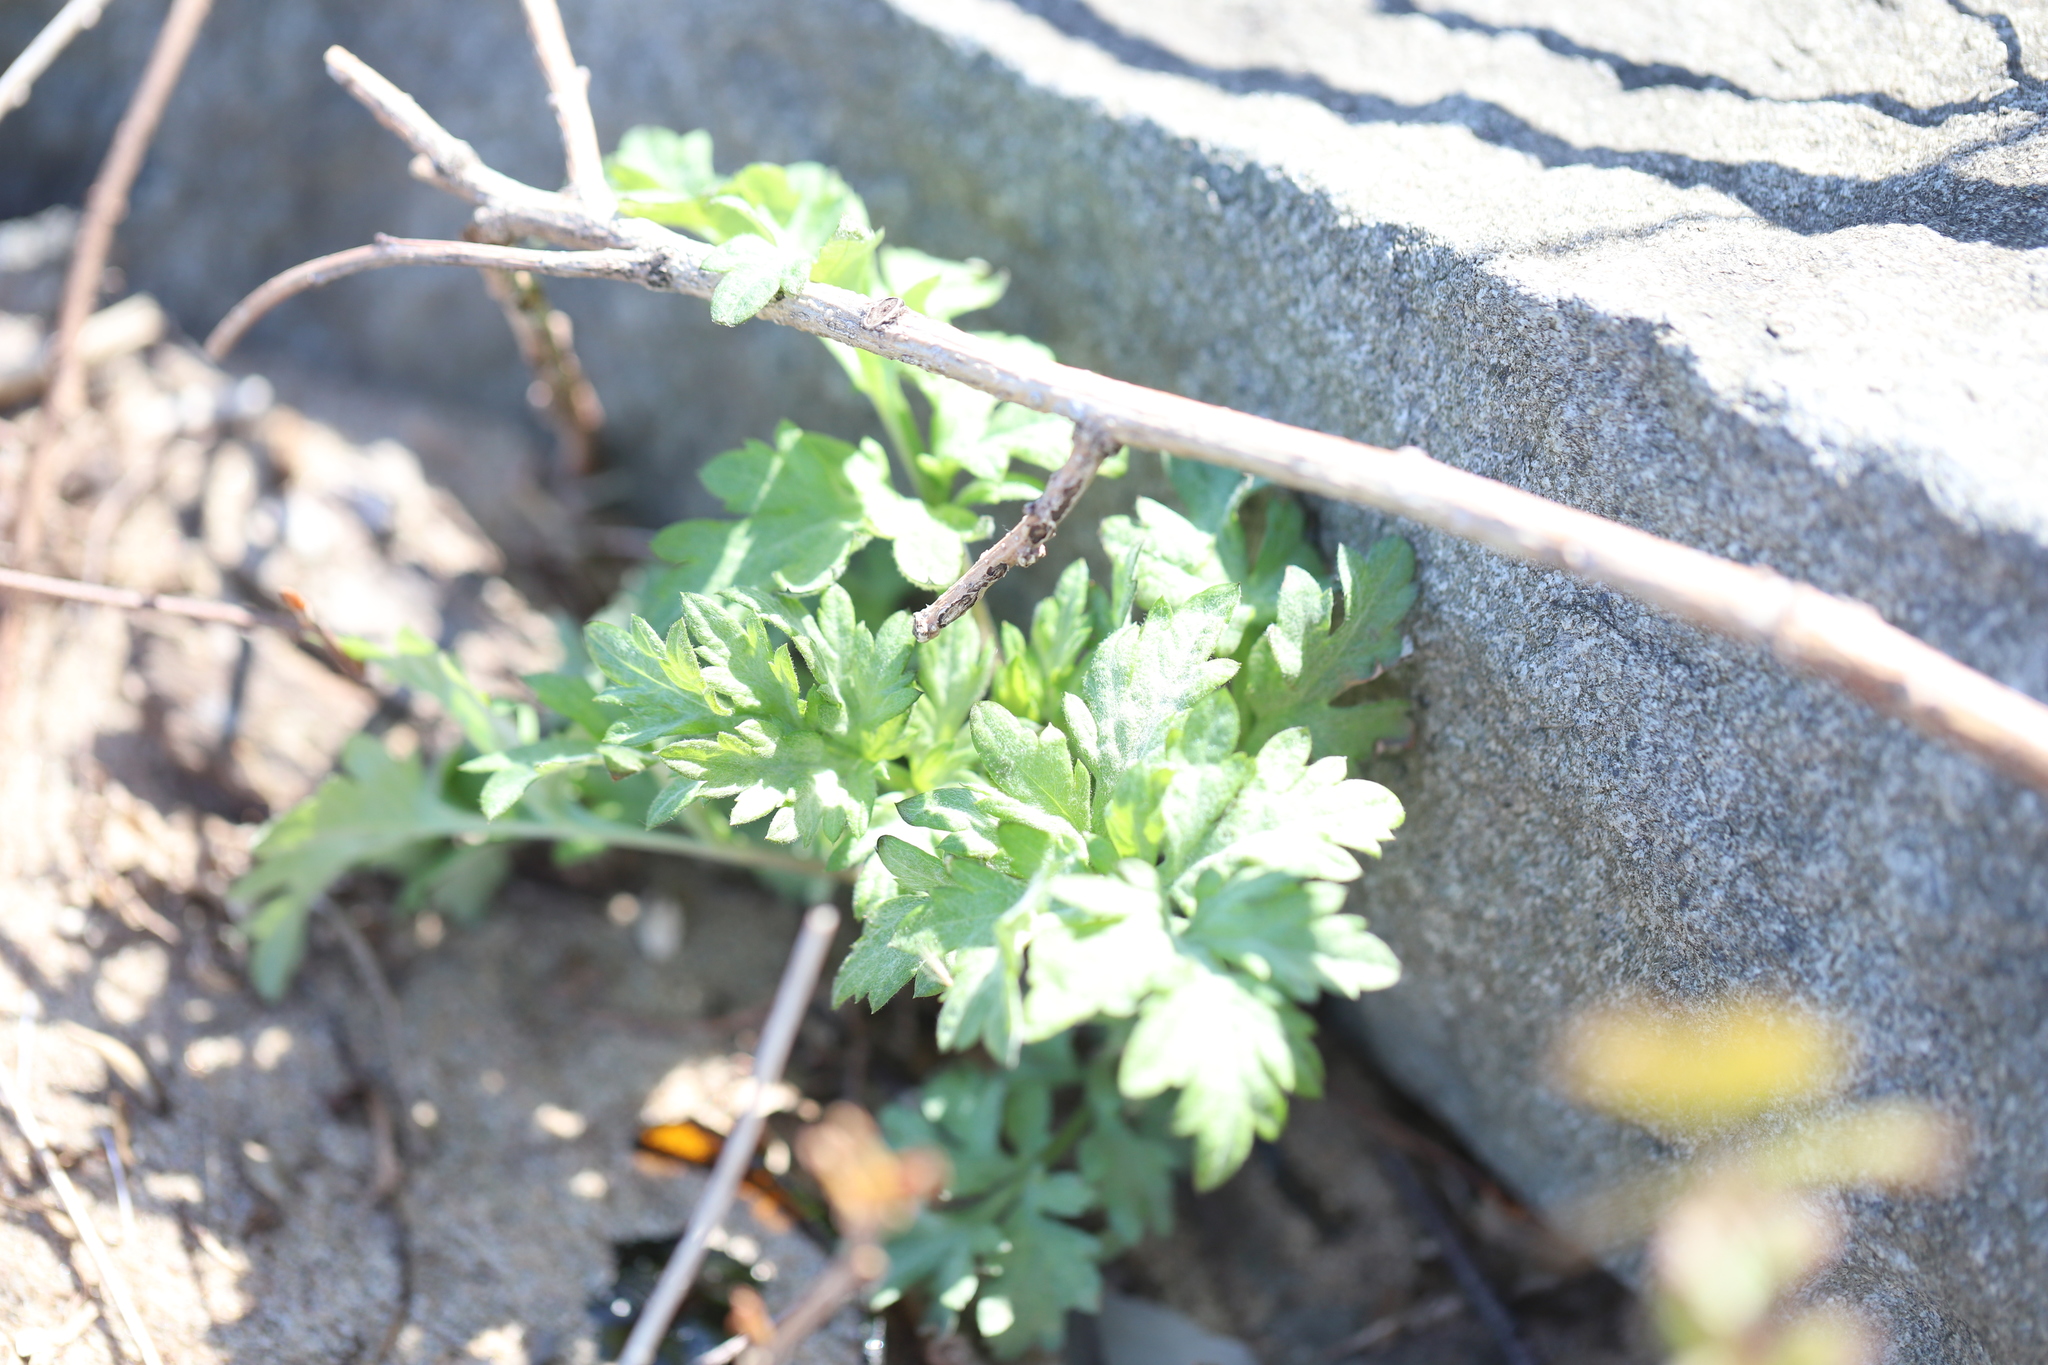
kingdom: Plantae
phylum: Tracheophyta
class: Magnoliopsida
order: Asterales
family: Asteraceae
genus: Artemisia
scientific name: Artemisia vulgaris
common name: Mugwort
